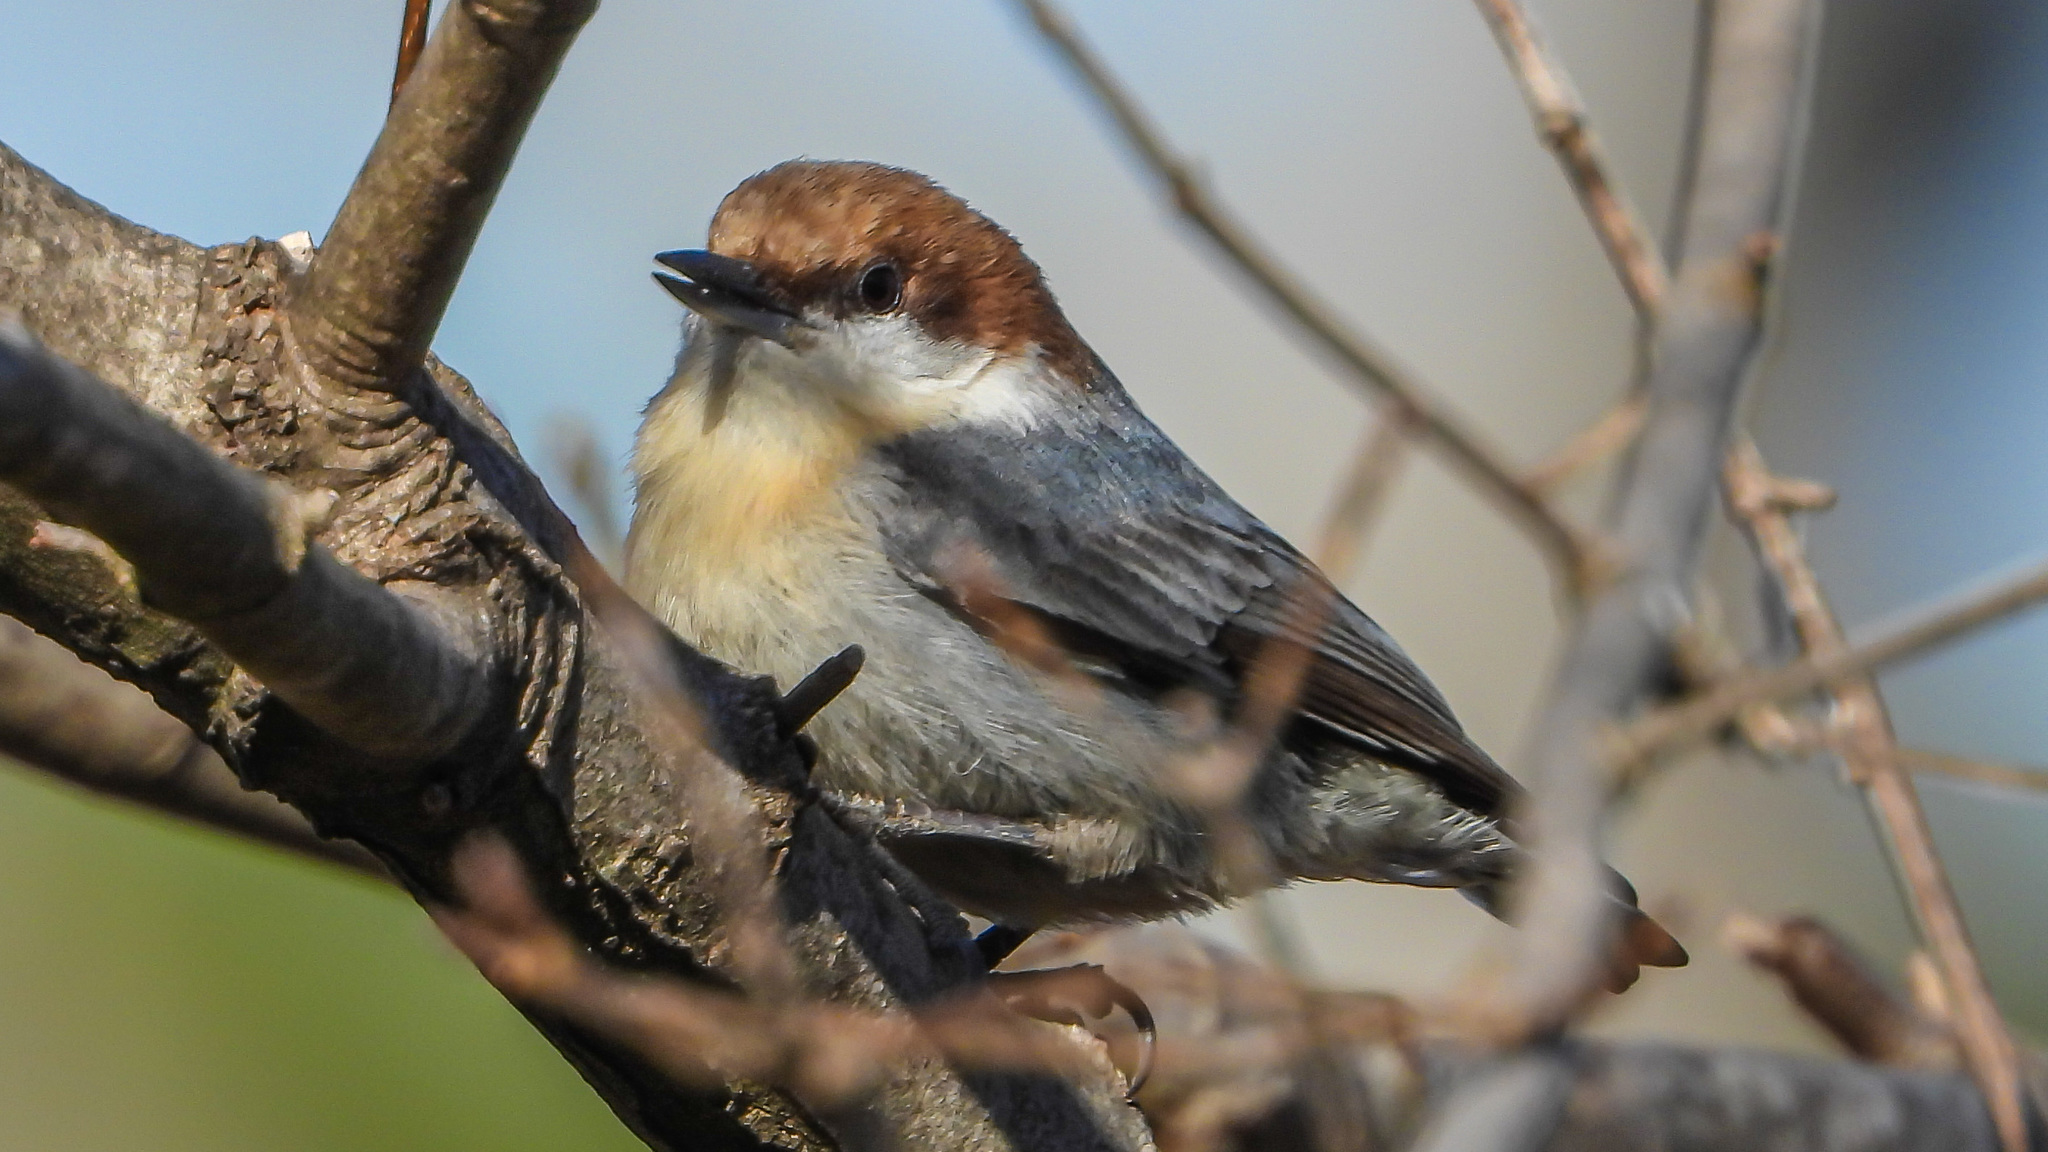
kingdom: Animalia
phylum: Chordata
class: Aves
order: Passeriformes
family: Sittidae
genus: Sitta
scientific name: Sitta pusilla
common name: Brown-headed nuthatch
